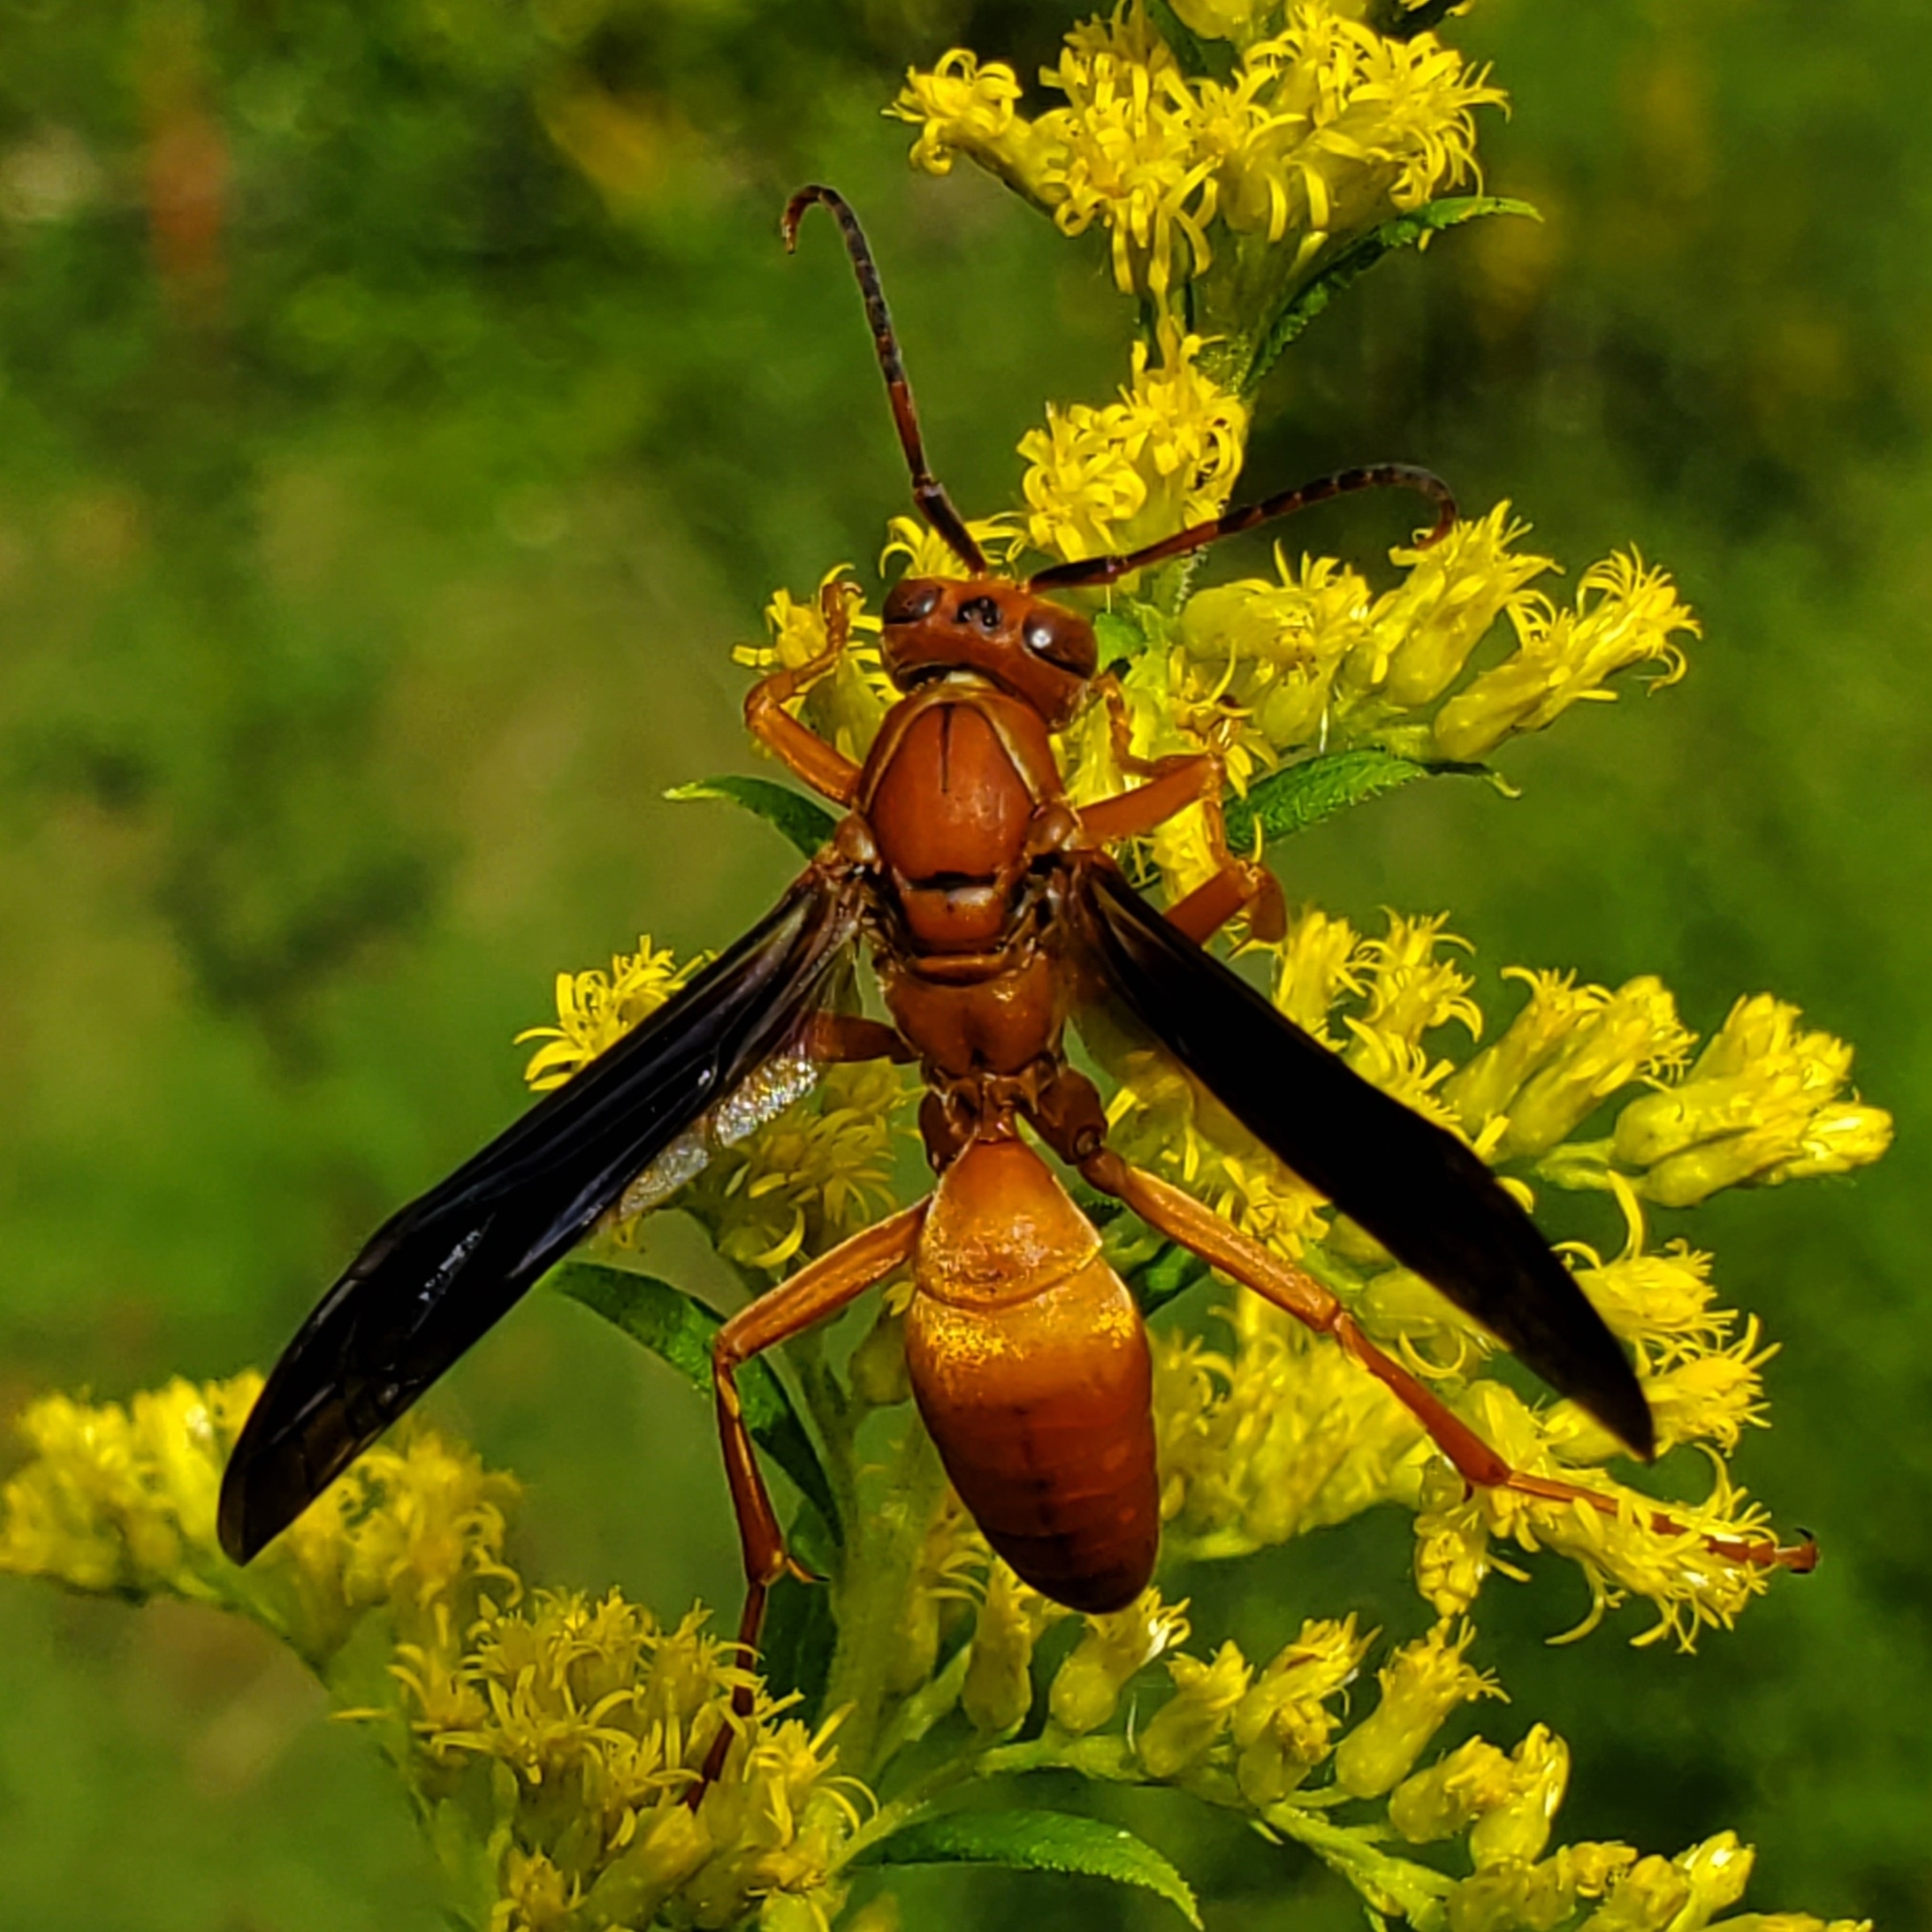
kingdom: Animalia
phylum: Arthropoda
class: Insecta
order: Hymenoptera
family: Vespidae
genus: Fuscopolistes
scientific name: Fuscopolistes
